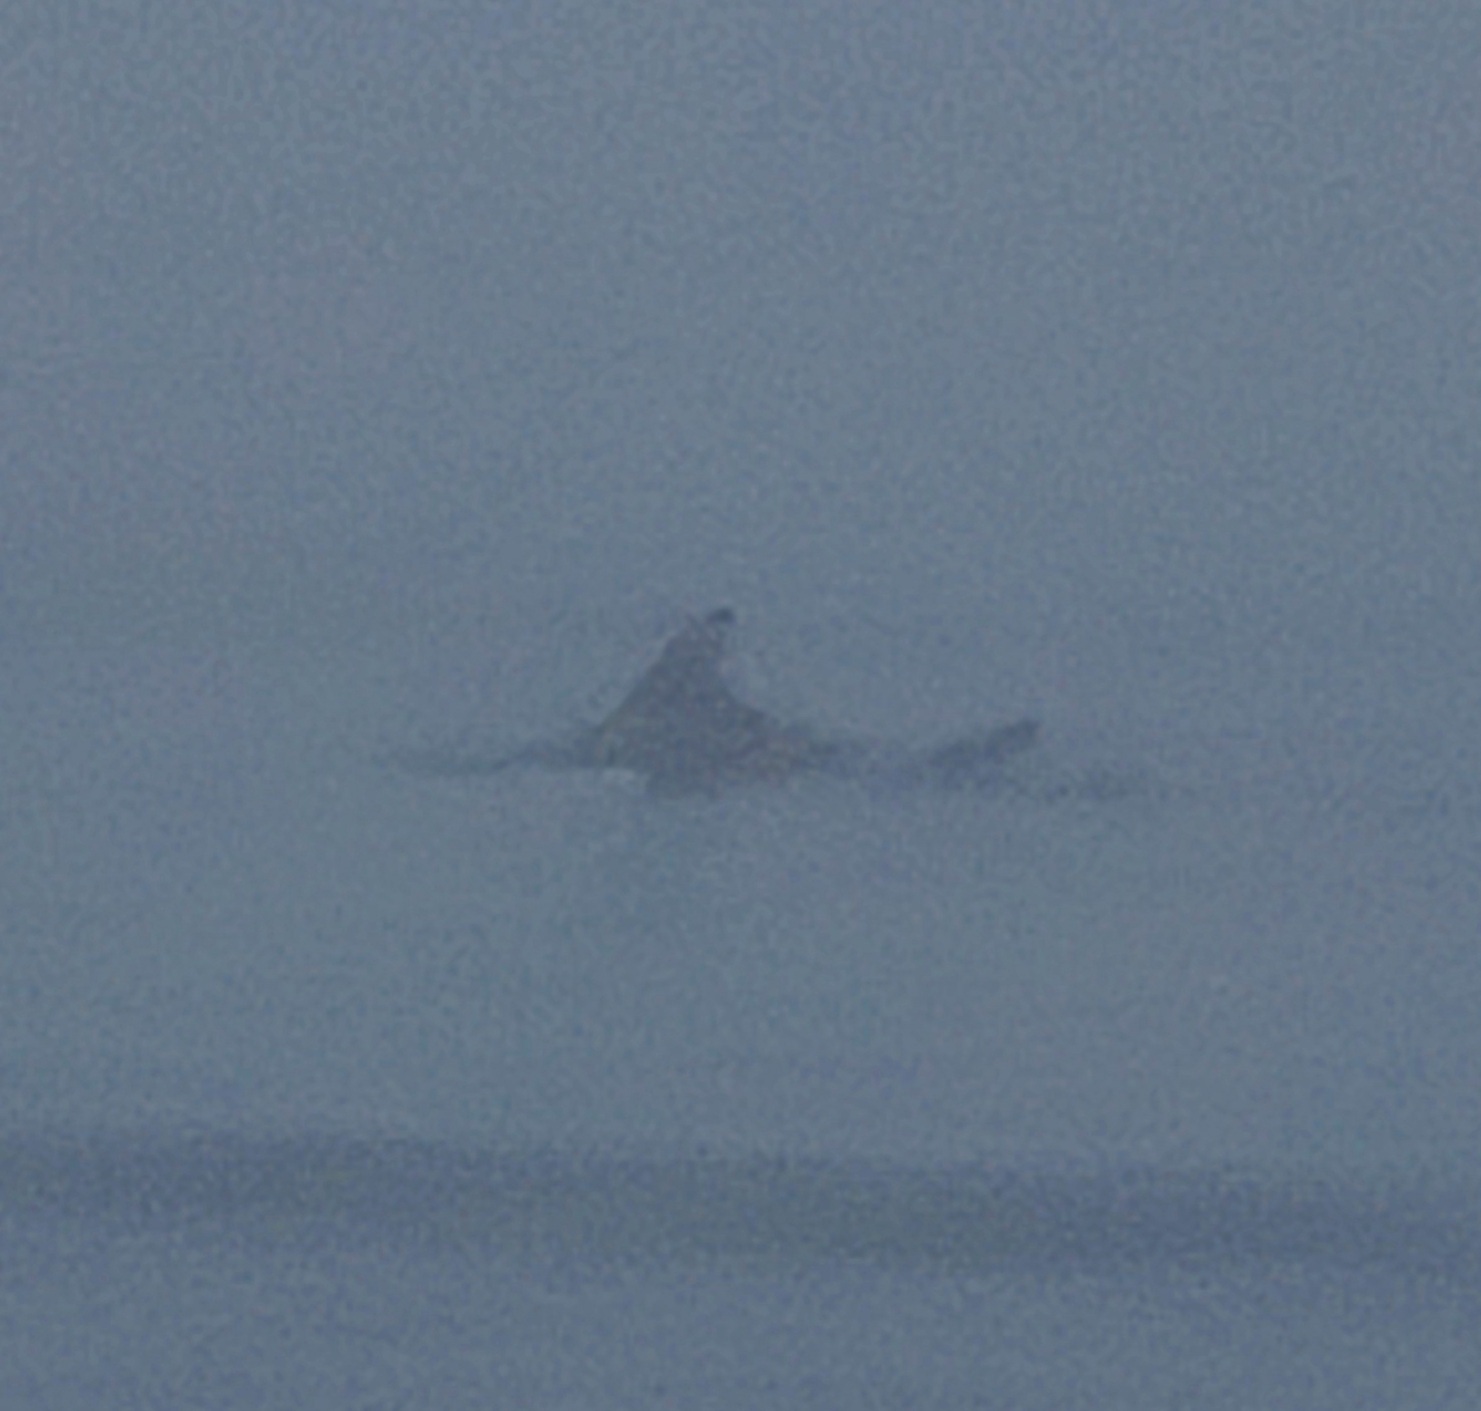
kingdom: Animalia
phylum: Chordata
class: Mammalia
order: Cetacea
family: Delphinidae
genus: Tursiops
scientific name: Tursiops truncatus
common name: Bottlenose dolphin
